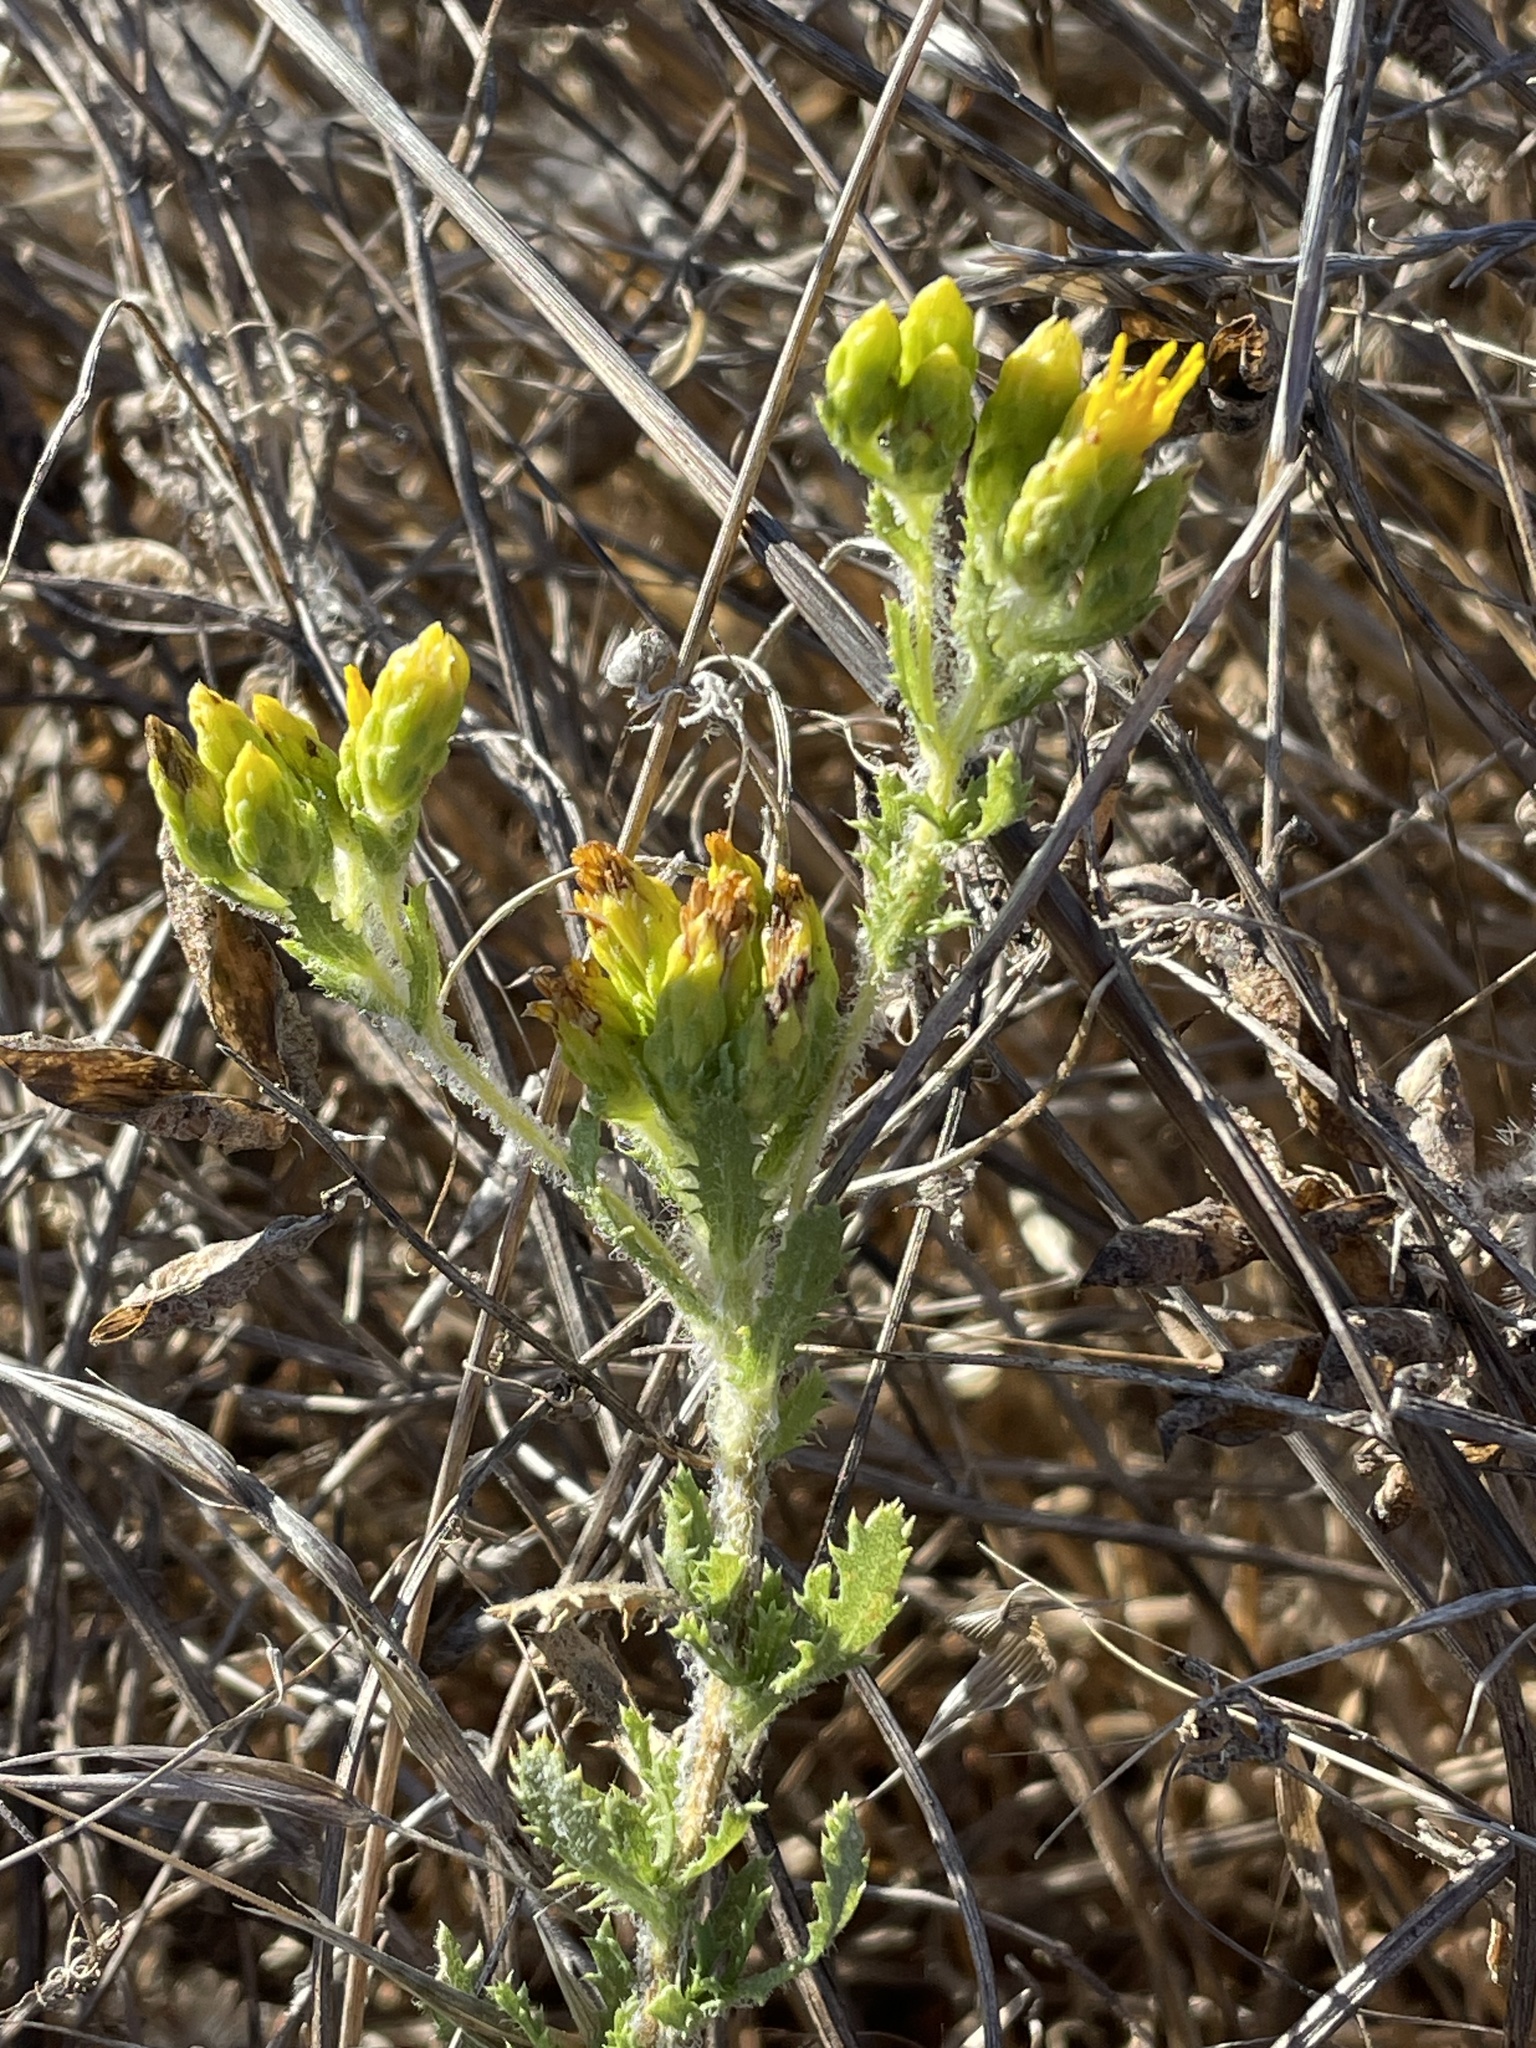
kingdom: Plantae
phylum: Tracheophyta
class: Magnoliopsida
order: Asterales
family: Asteraceae
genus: Isocoma
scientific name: Isocoma menziesii
